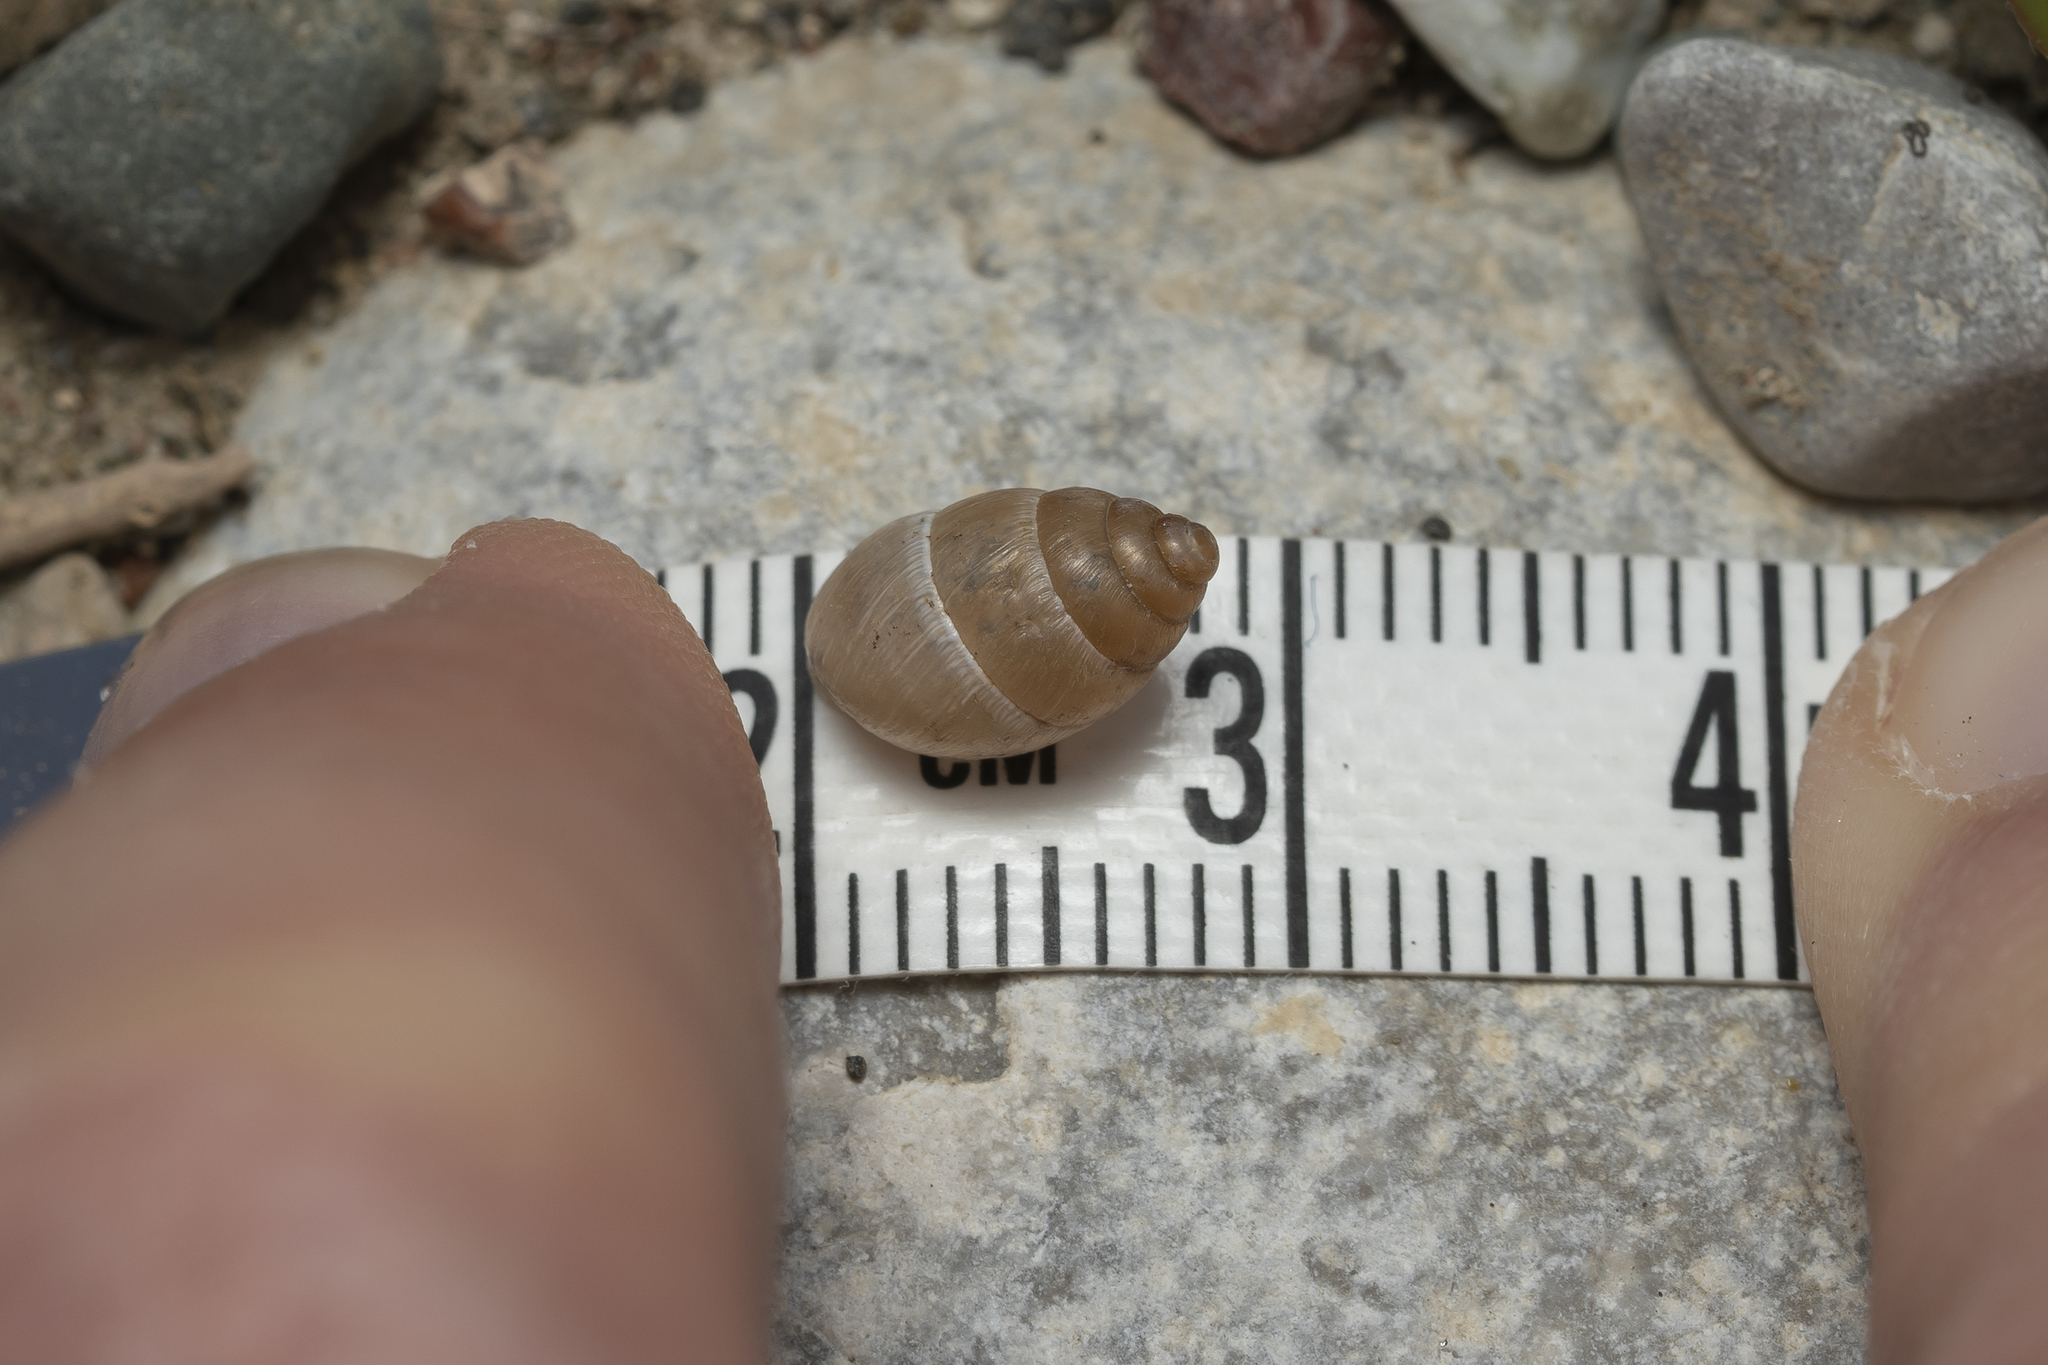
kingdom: Animalia
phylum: Mollusca
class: Gastropoda
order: Stylommatophora
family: Enidae
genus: Mastus
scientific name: Mastus turgidus
